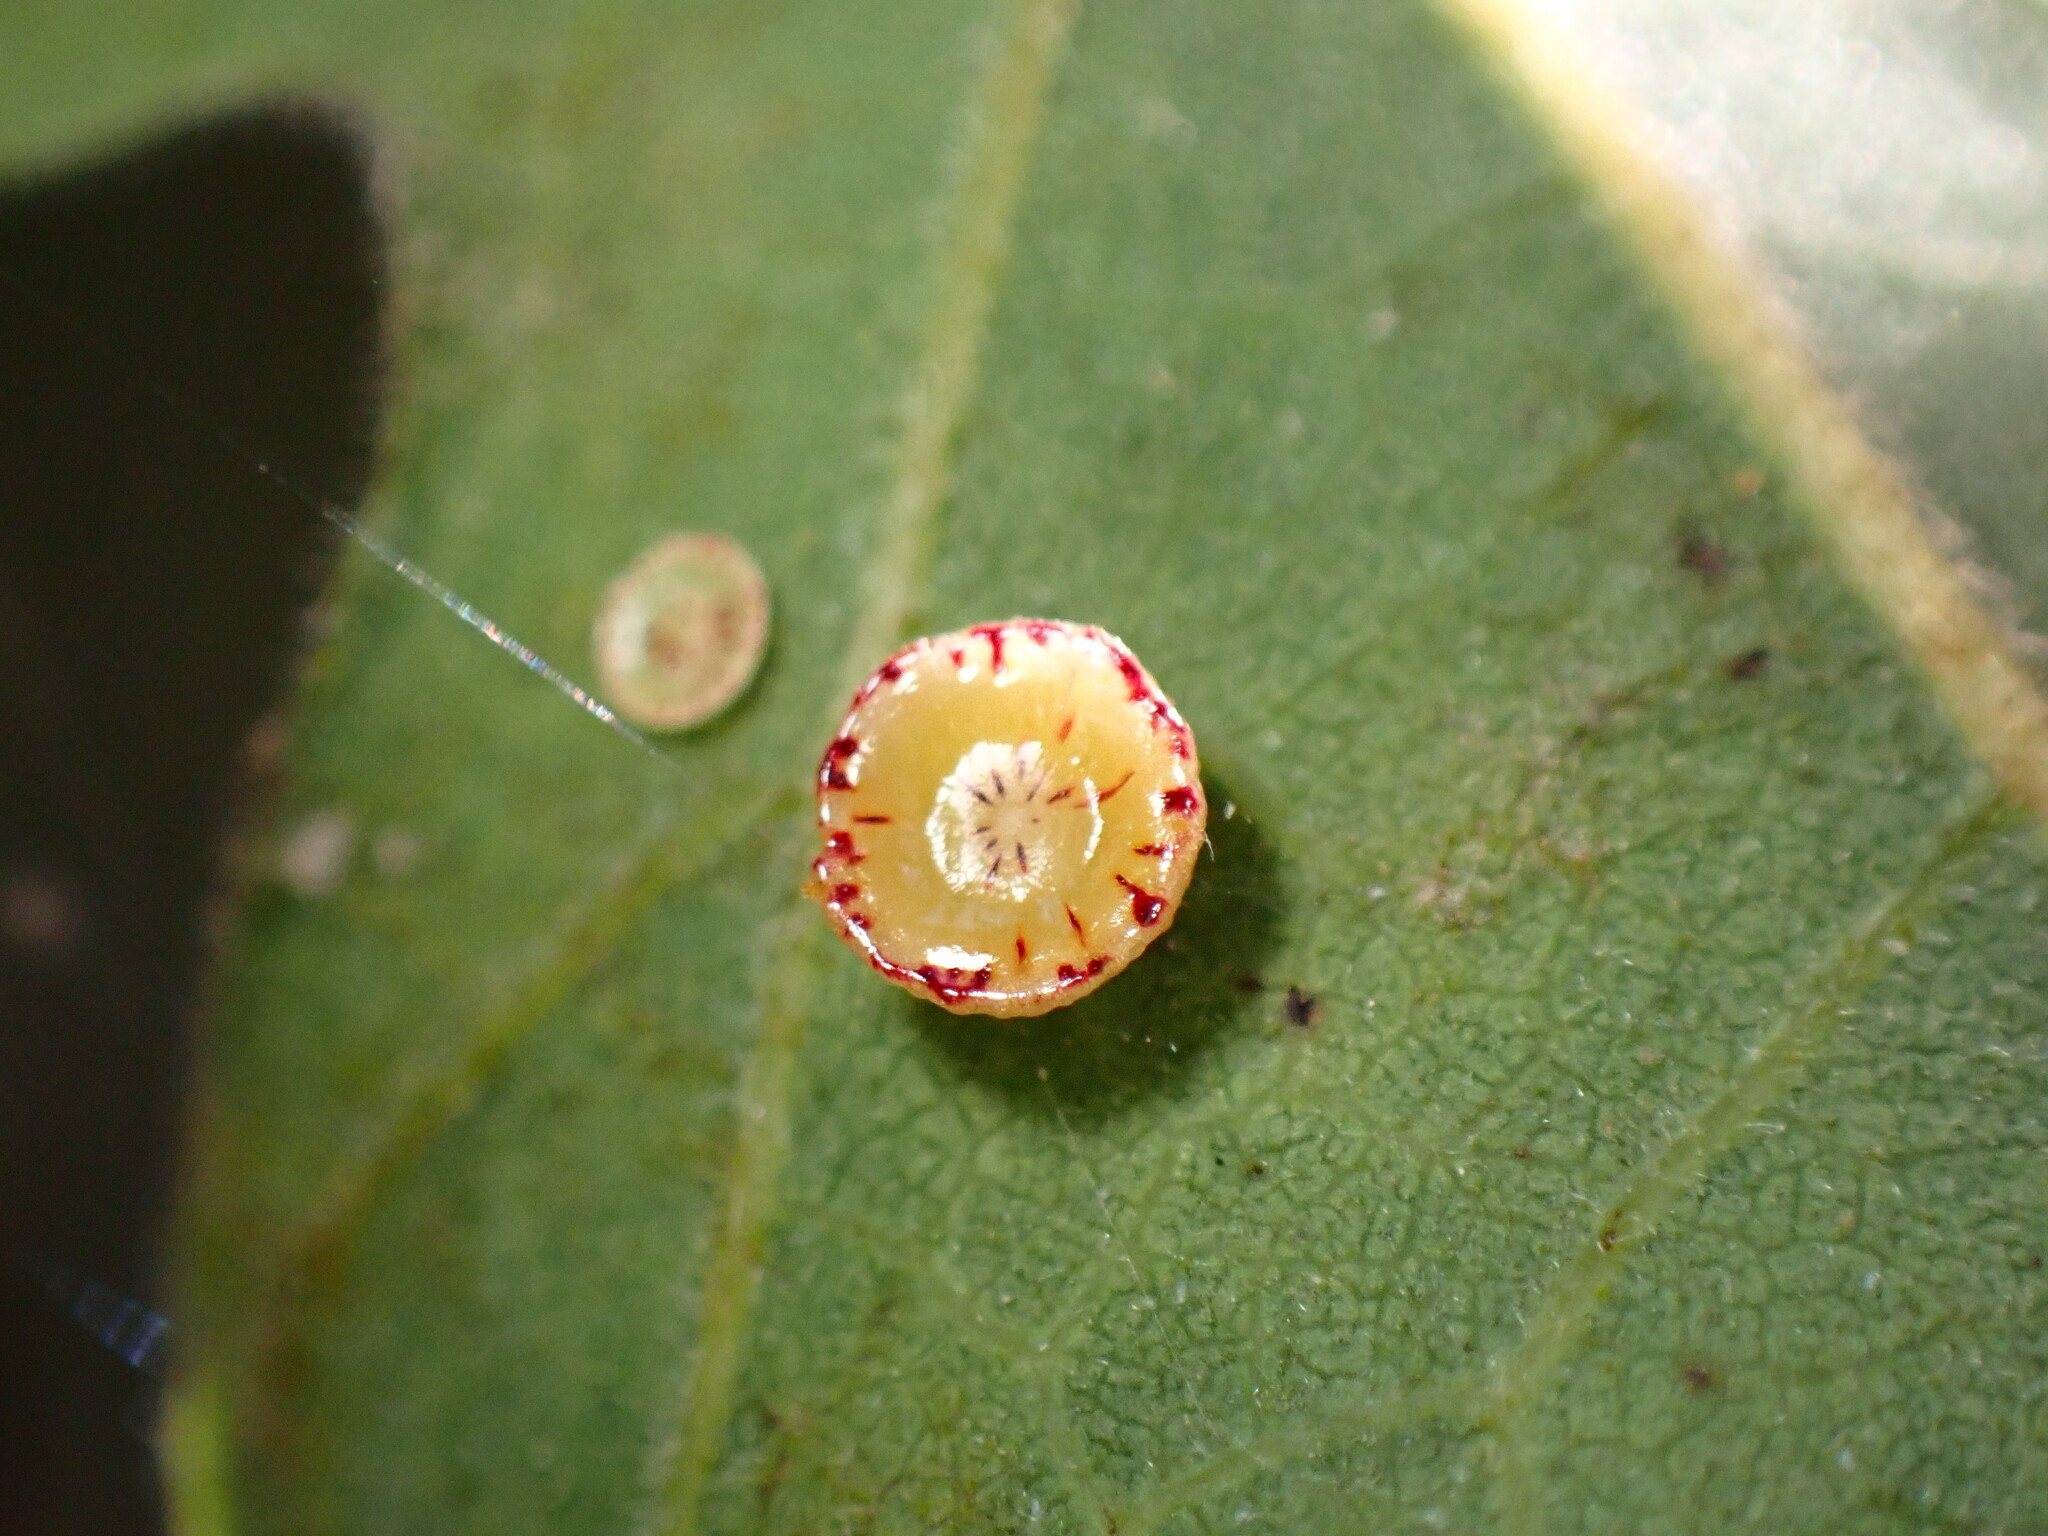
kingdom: Animalia
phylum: Arthropoda
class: Insecta
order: Hymenoptera
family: Cynipidae
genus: Andricus
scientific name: Andricus
